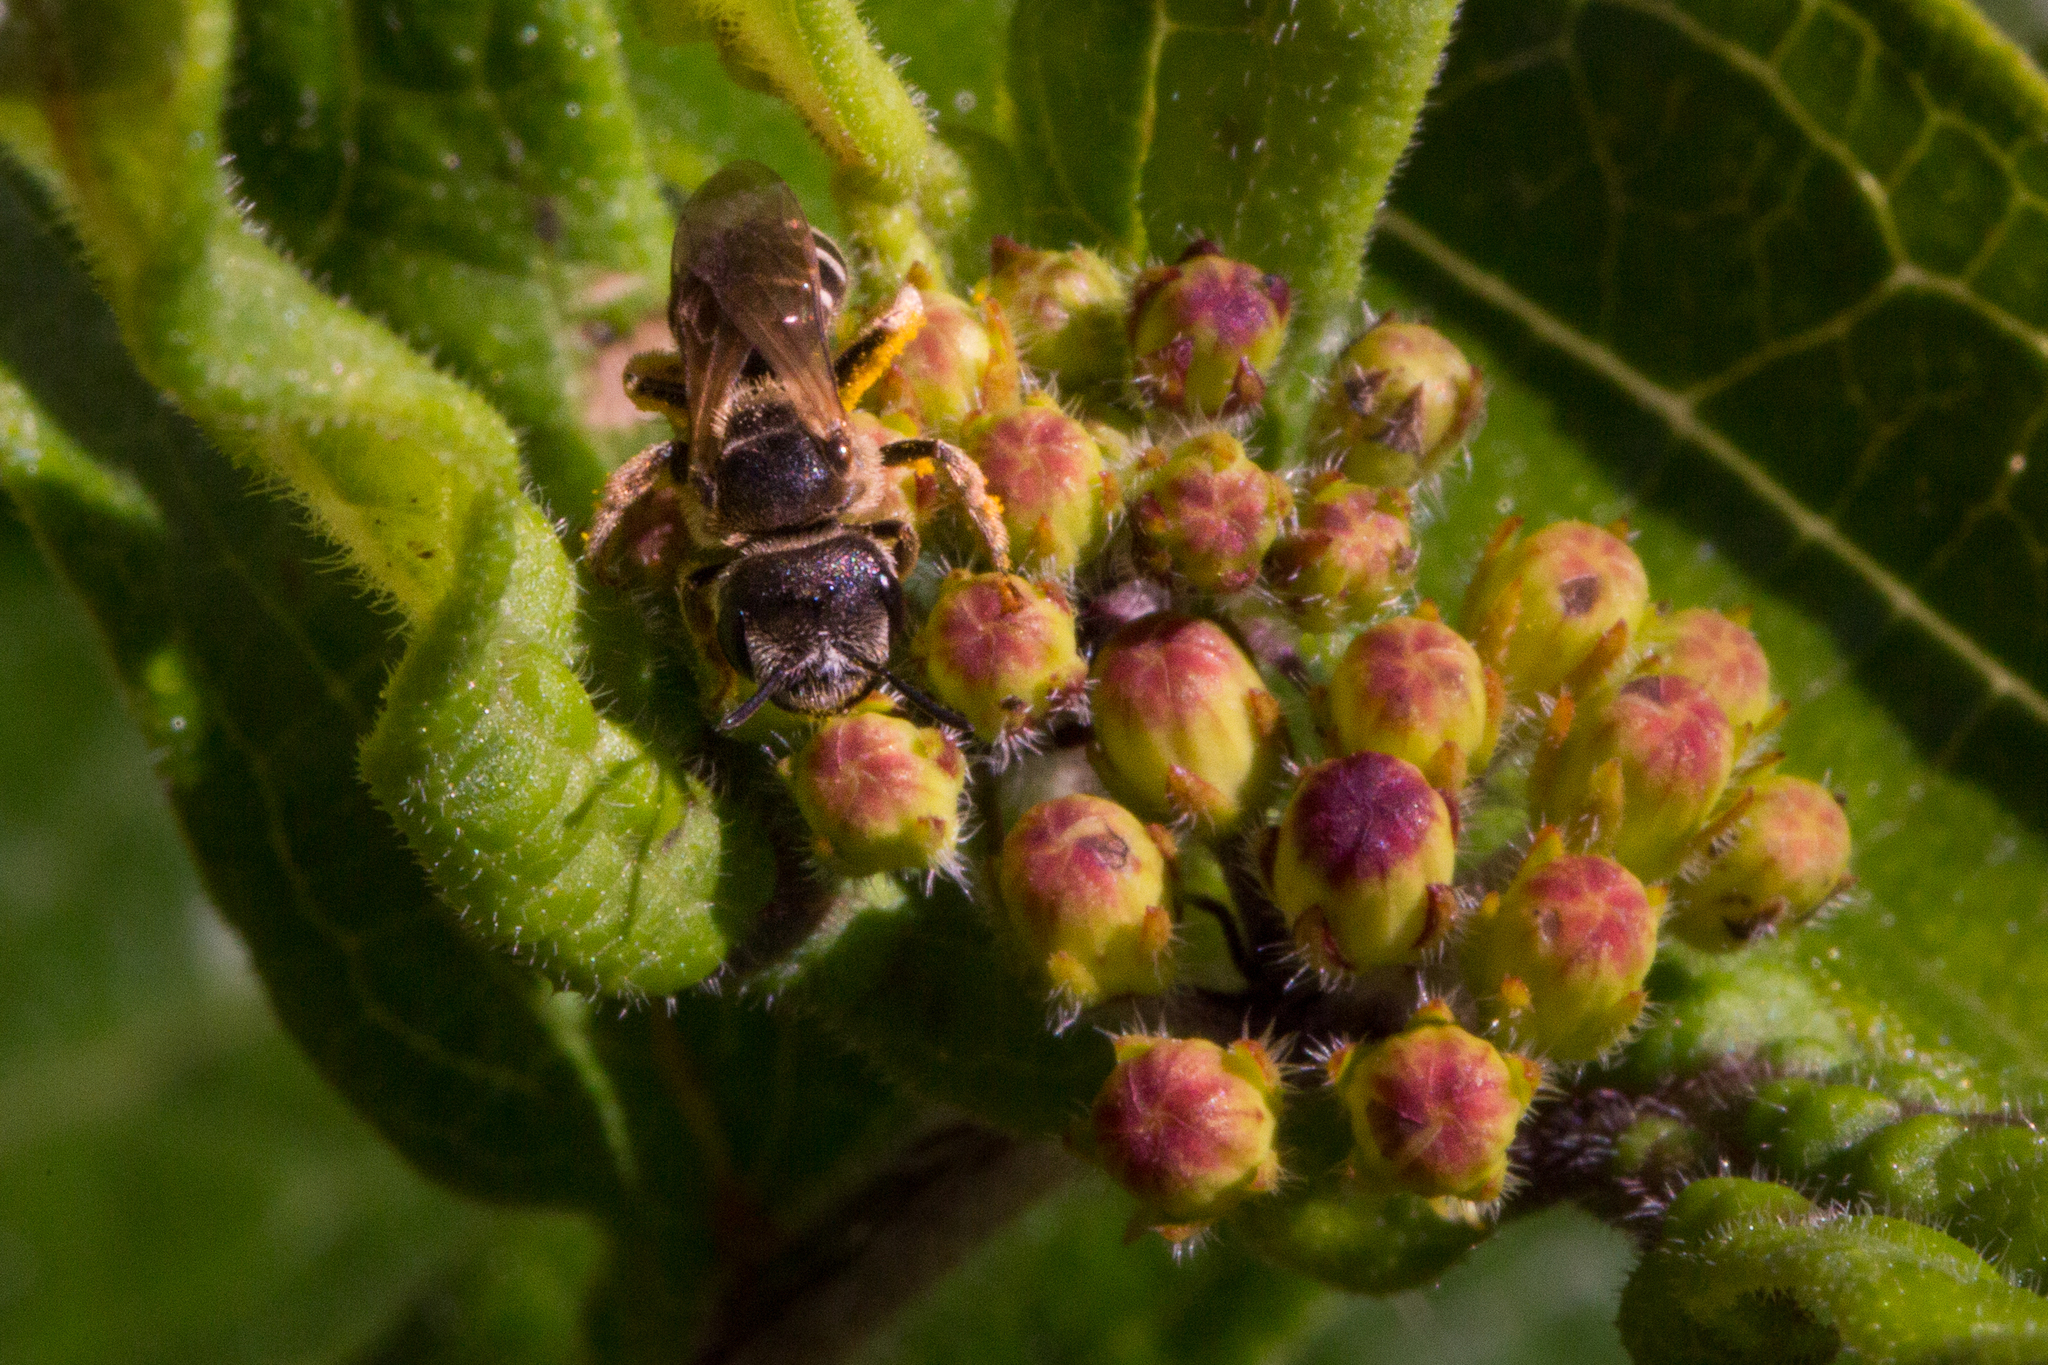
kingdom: Animalia
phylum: Arthropoda
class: Insecta
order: Hymenoptera
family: Halictidae
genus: Halictus
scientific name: Halictus ligatus
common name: Ligated furrow bee
